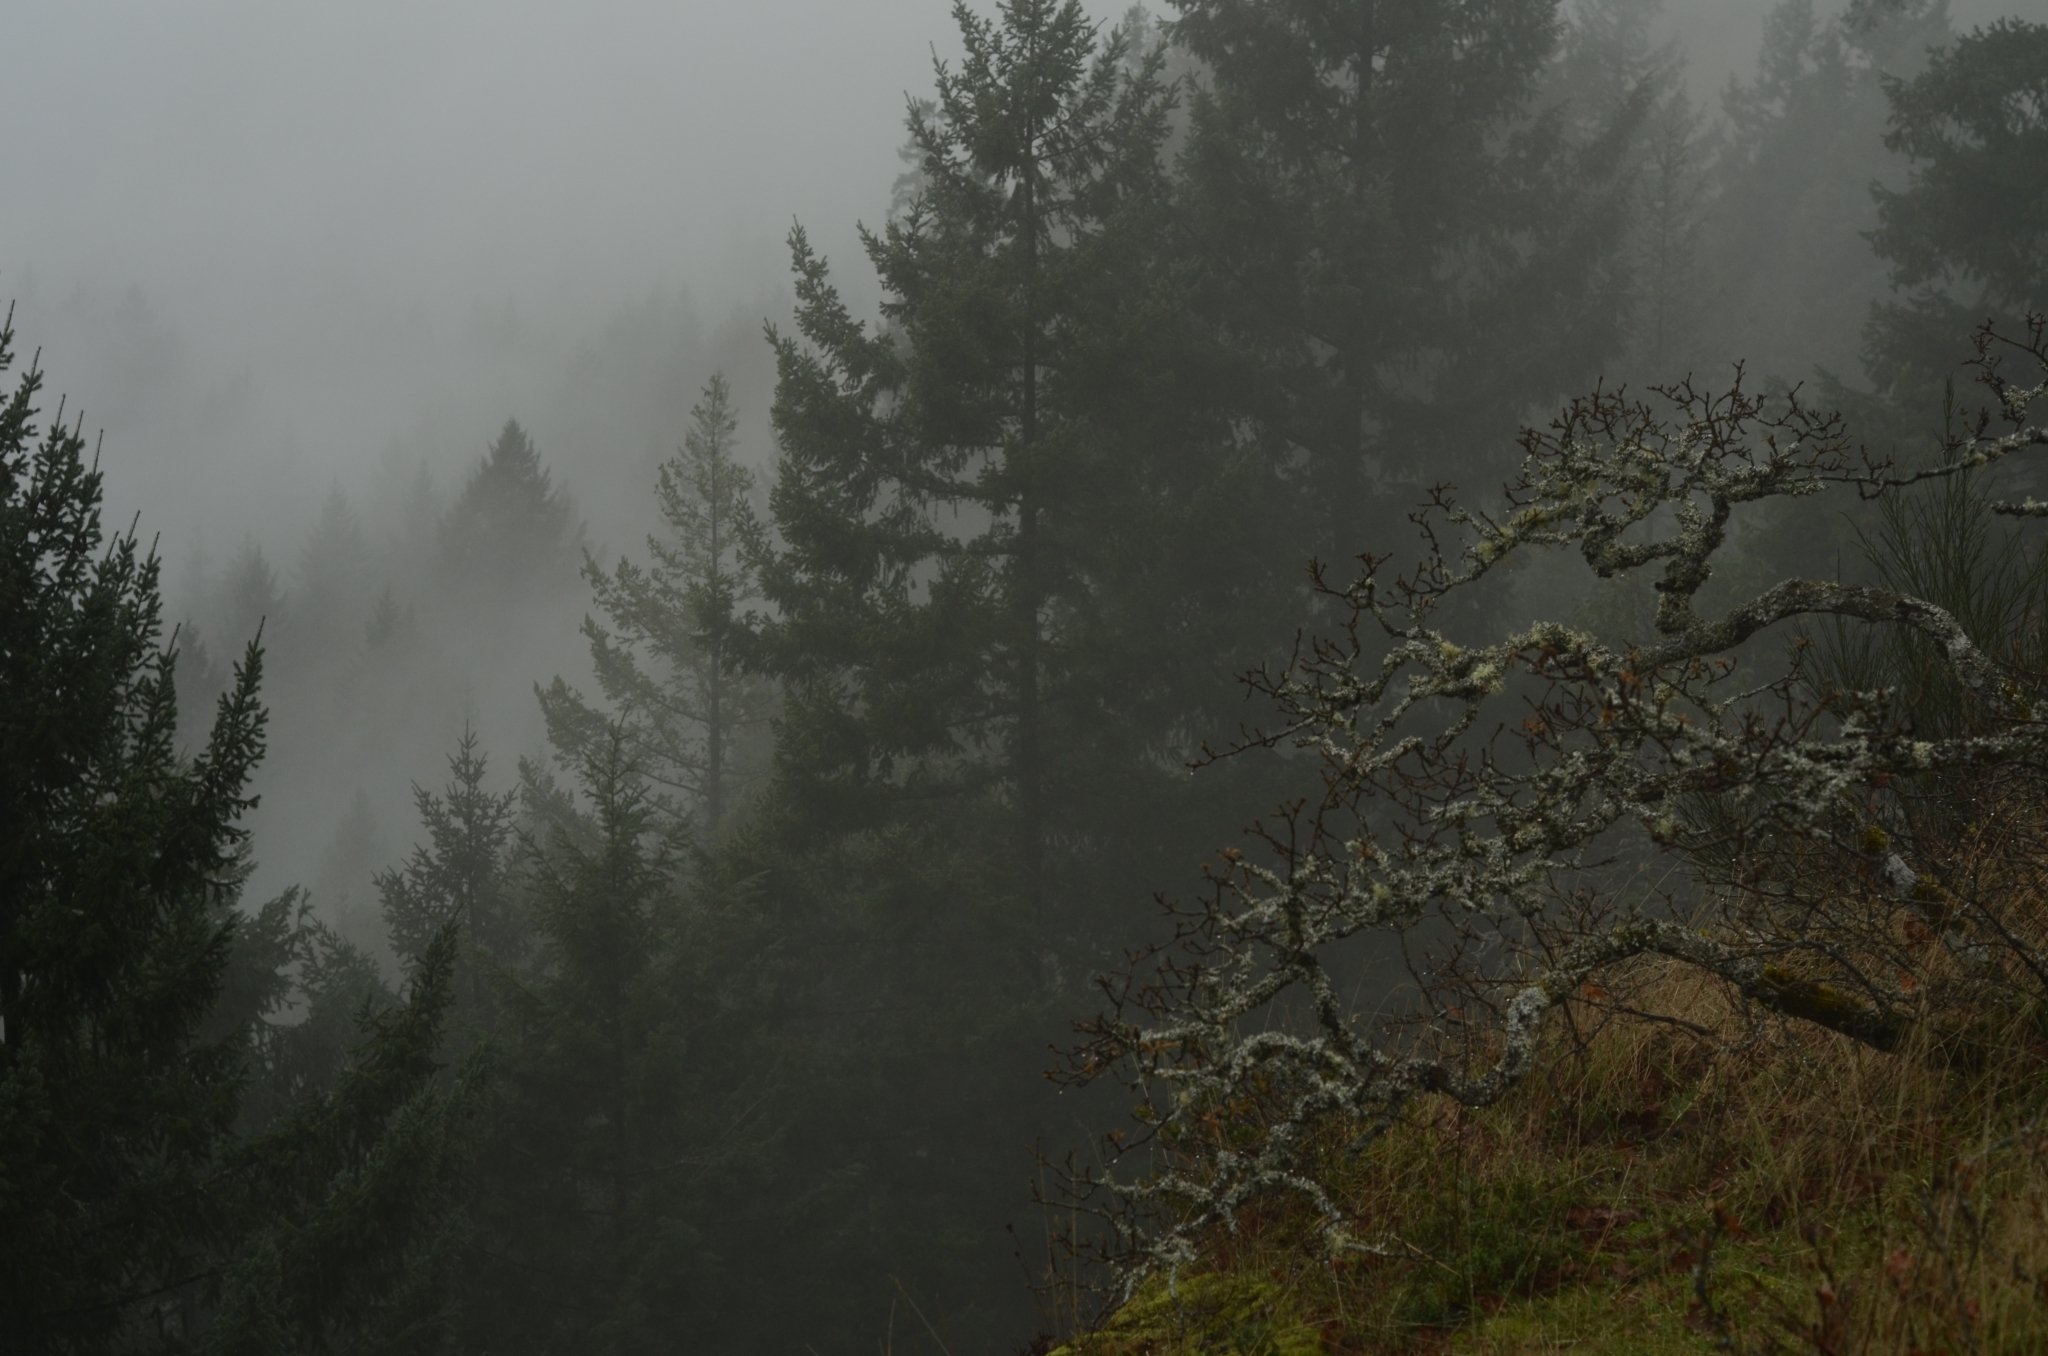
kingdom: Plantae
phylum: Tracheophyta
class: Magnoliopsida
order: Fagales
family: Fagaceae
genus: Quercus
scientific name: Quercus garryana
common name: Garry oak
